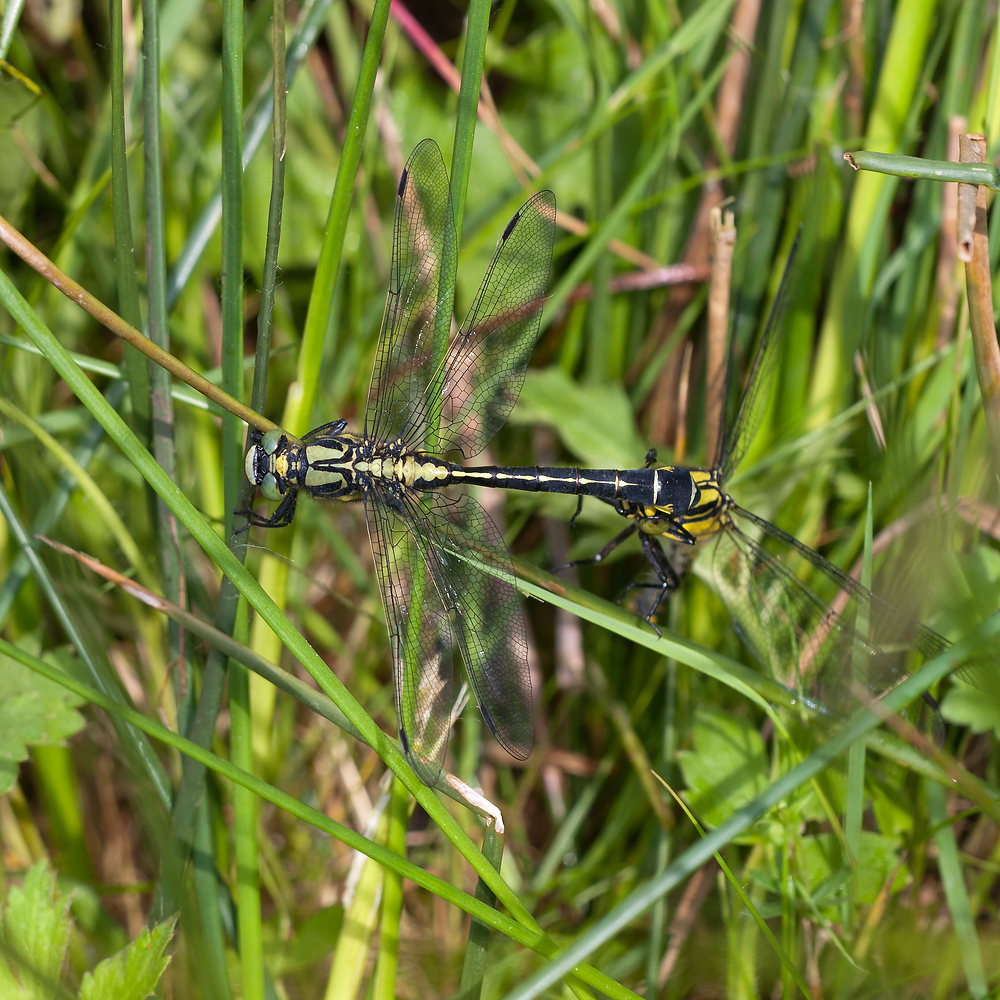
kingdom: Animalia
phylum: Arthropoda
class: Insecta
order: Odonata
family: Gomphidae
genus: Gomphus
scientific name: Gomphus vulgatissimus
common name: Club-tailed dragonfly
